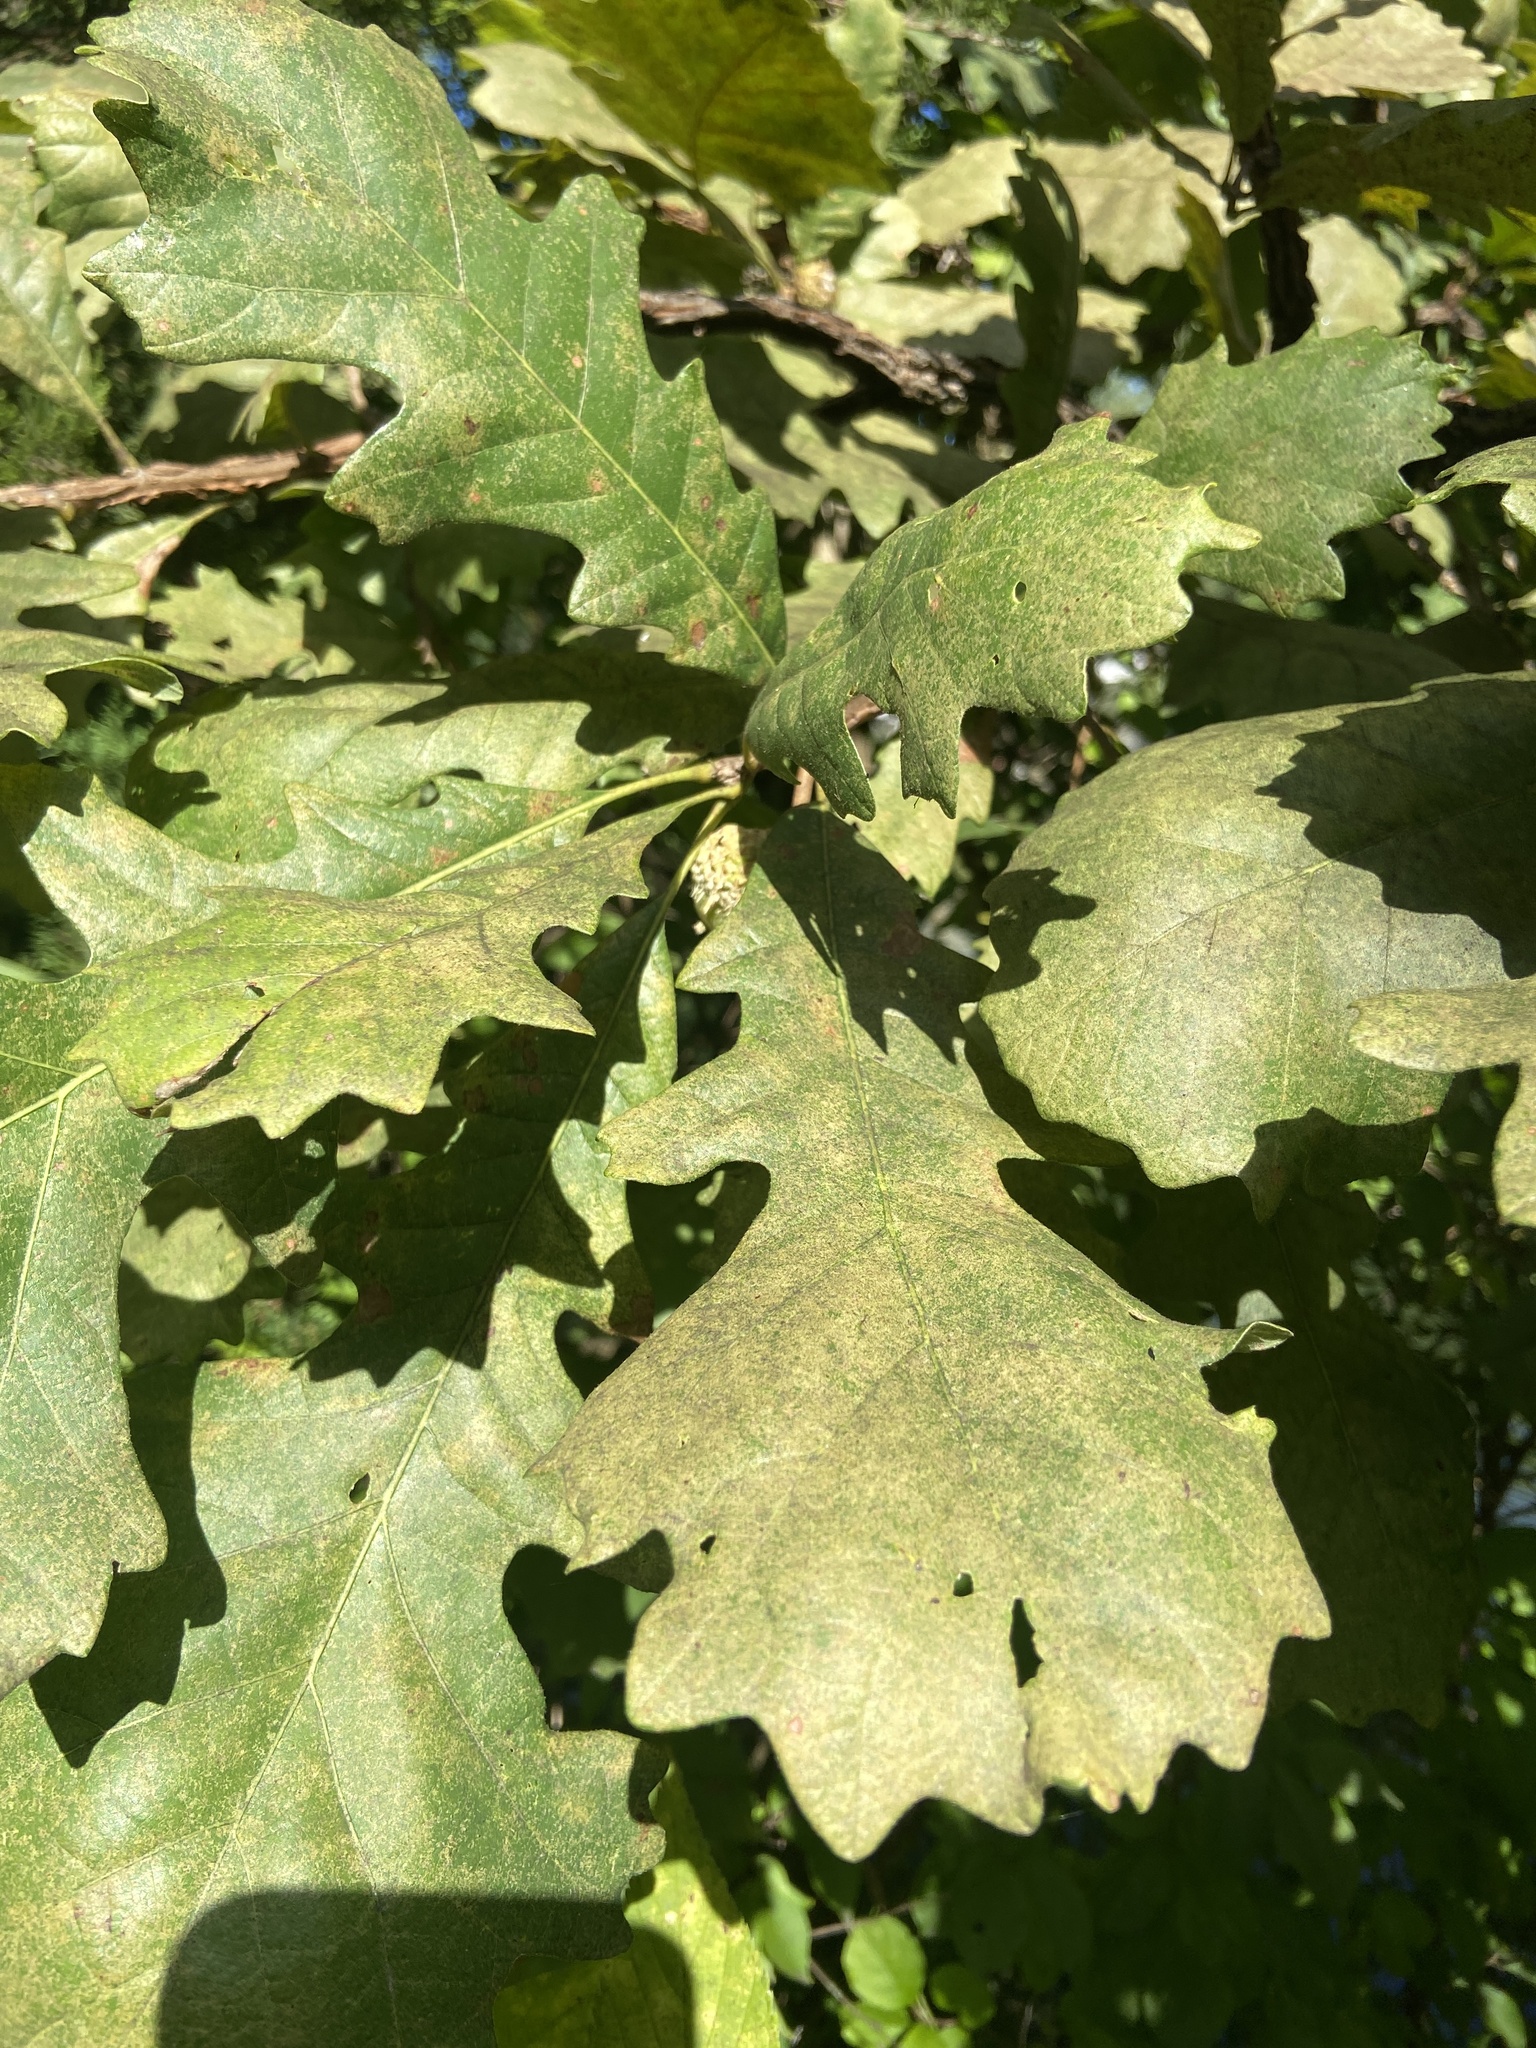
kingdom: Plantae
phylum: Tracheophyta
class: Magnoliopsida
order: Fagales
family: Fagaceae
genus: Quercus
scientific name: Quercus macrocarpa
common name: Bur oak
